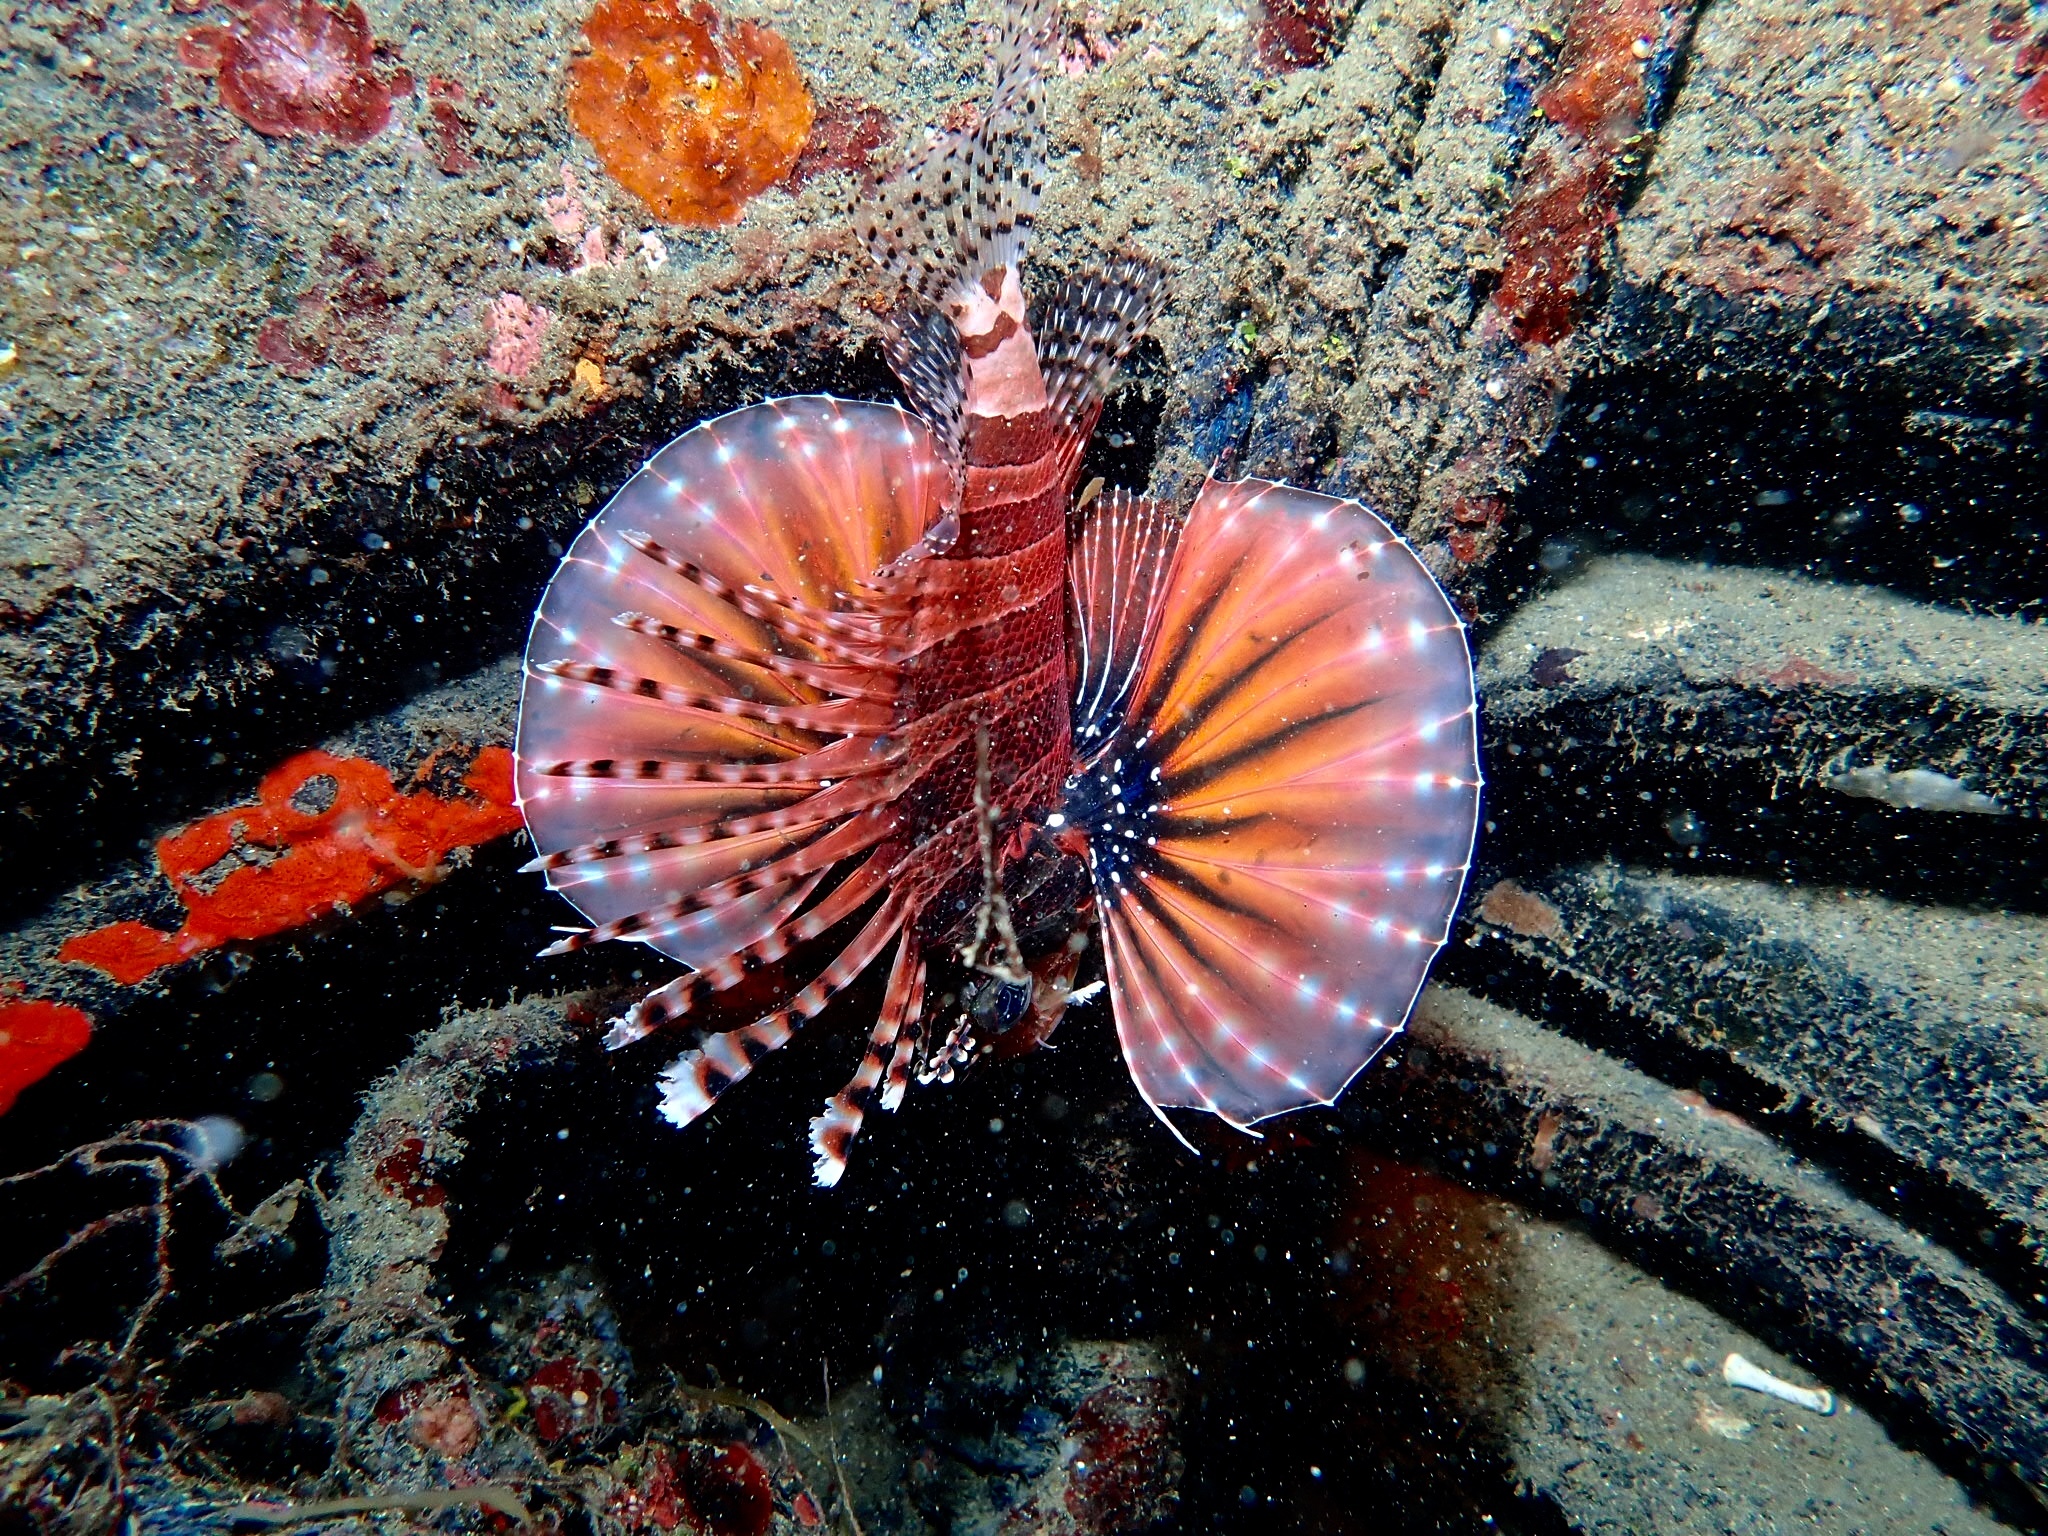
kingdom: Animalia
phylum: Chordata
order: Scorpaeniformes
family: Scorpaenidae
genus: Dendrochirus
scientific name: Dendrochirus zebra
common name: Zebra lionfish
